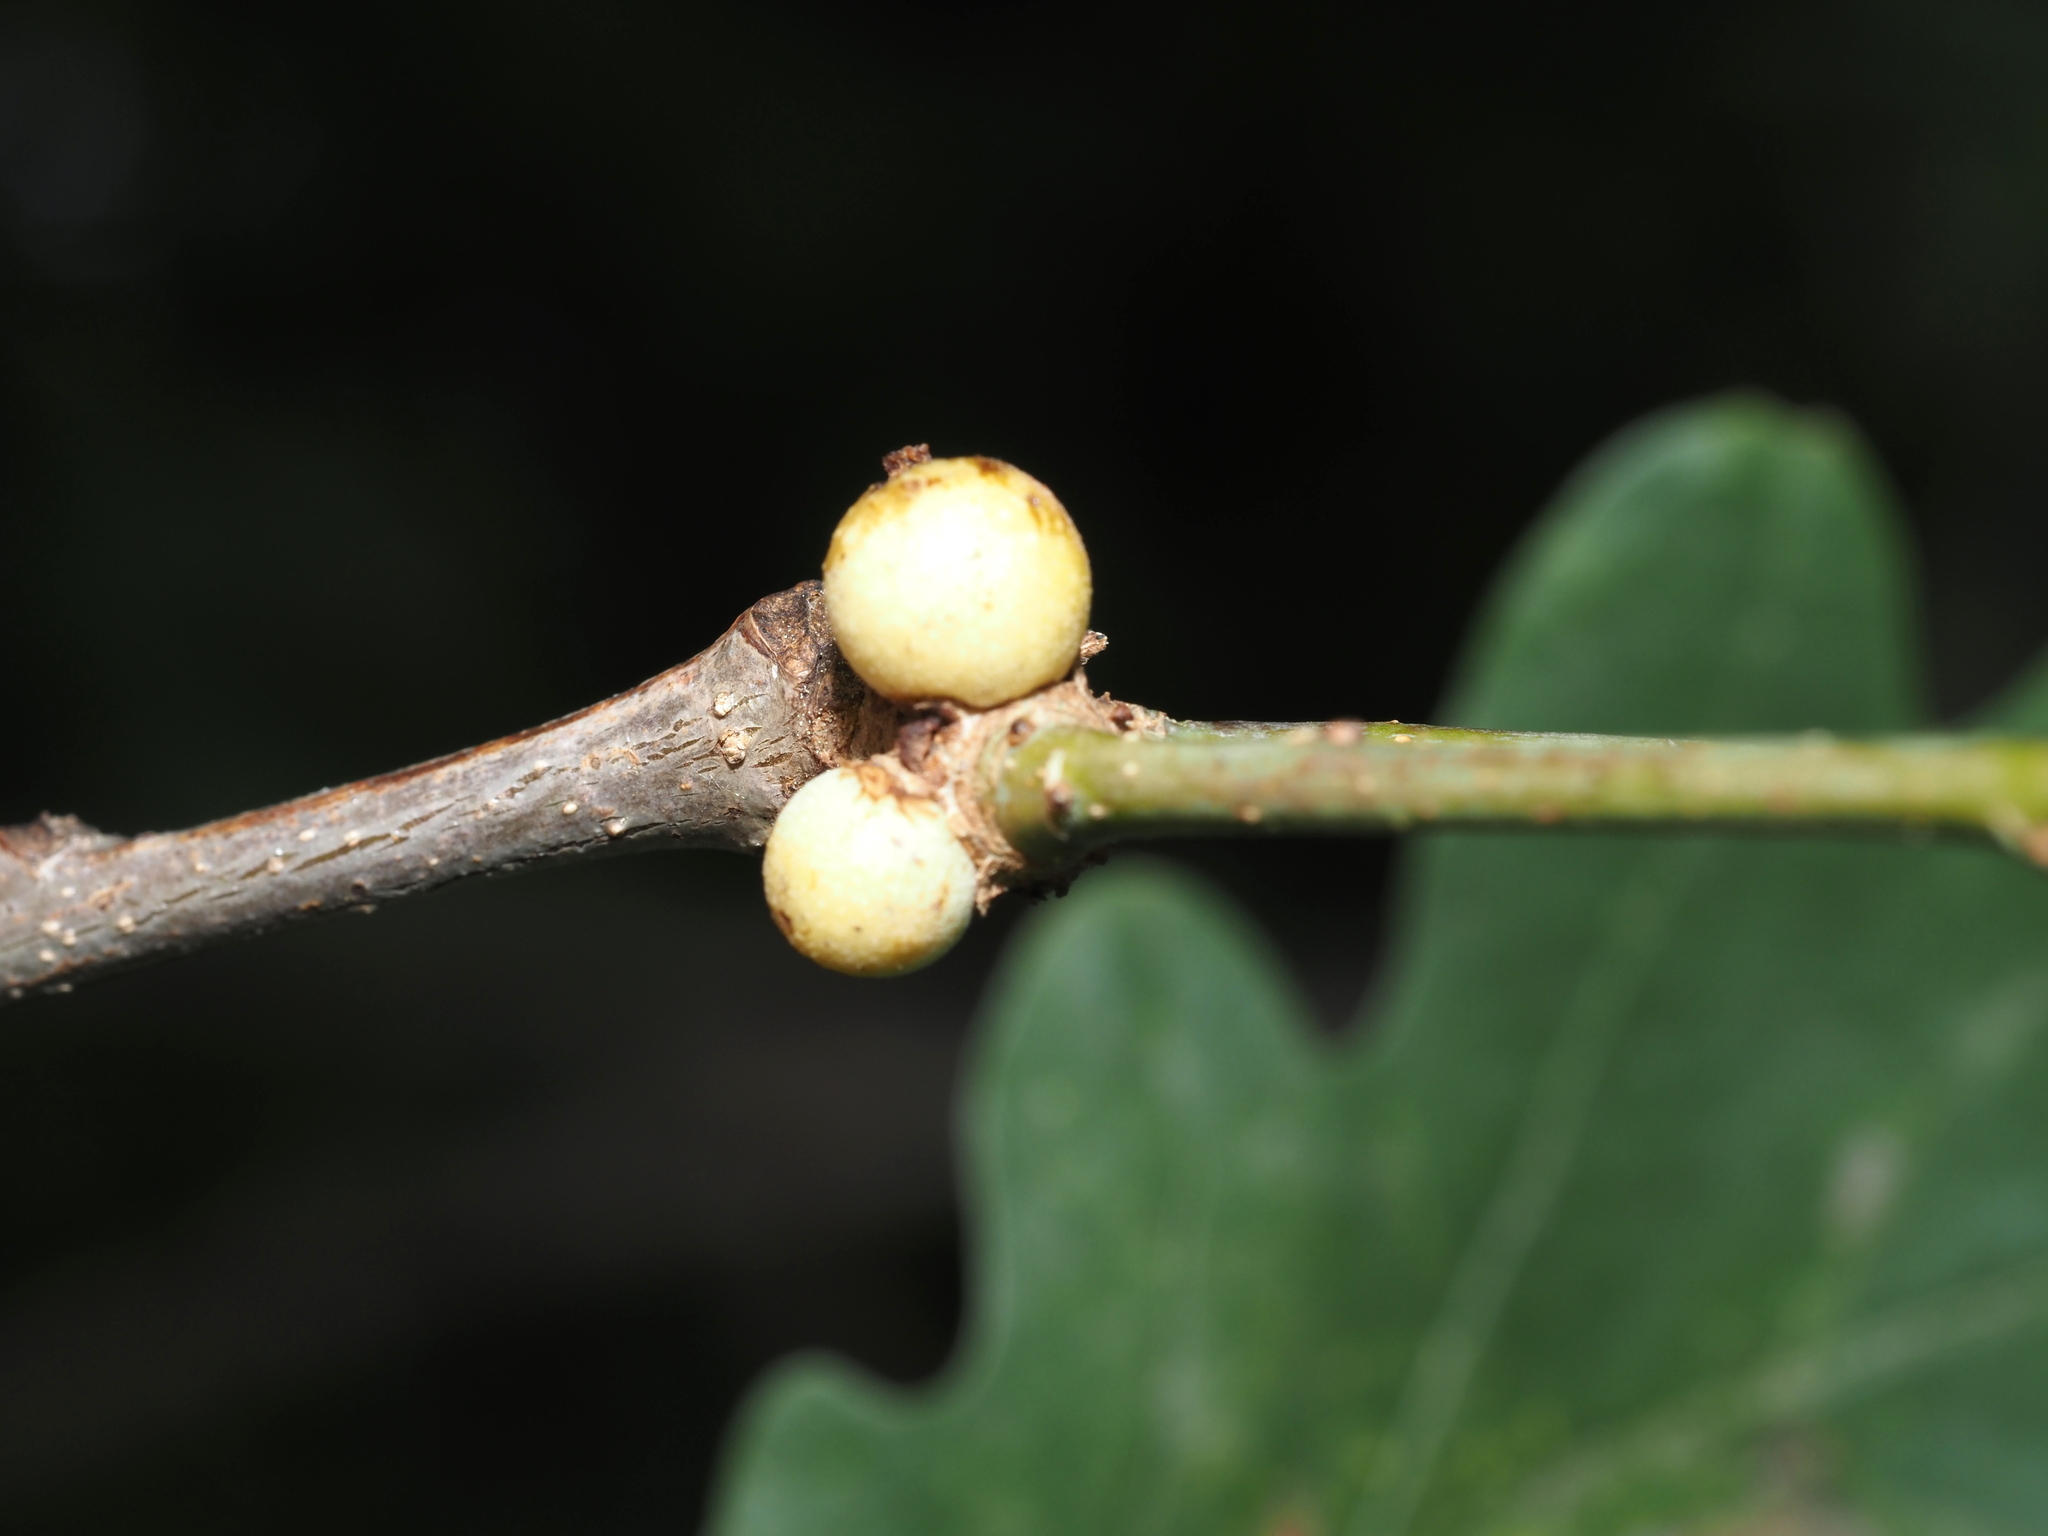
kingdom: Animalia
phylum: Arthropoda
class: Insecta
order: Hymenoptera
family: Cynipidae
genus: Disholcaspis
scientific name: Disholcaspis quercusglobulus
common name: Round bullet gall wasp
